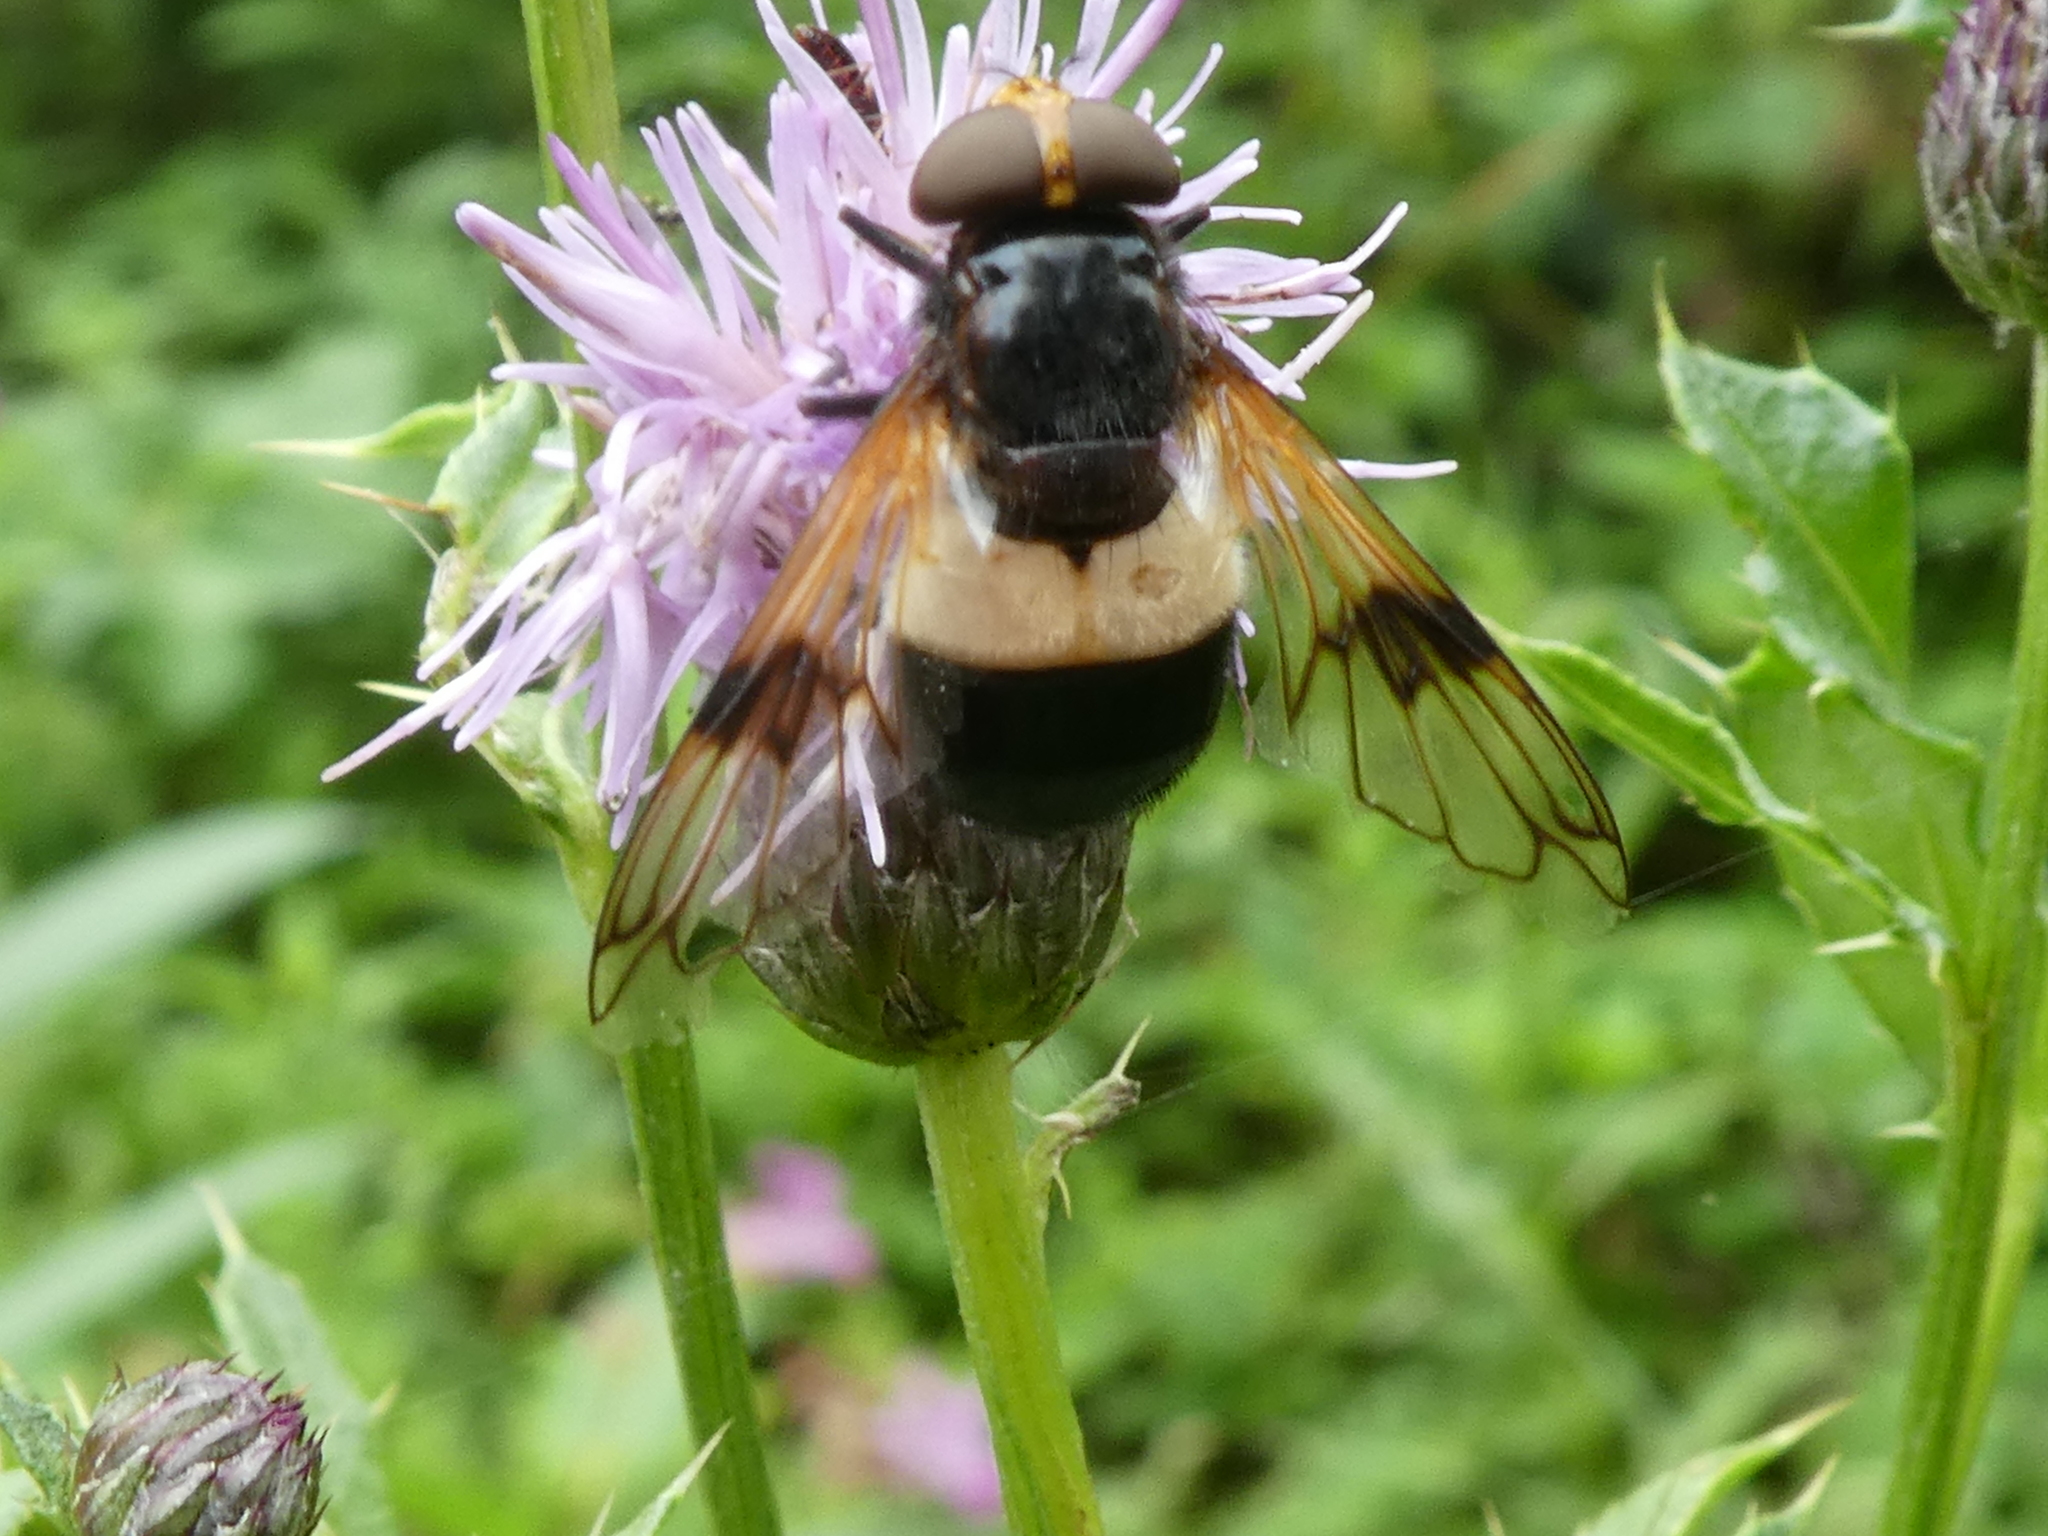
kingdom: Animalia
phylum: Arthropoda
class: Insecta
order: Diptera
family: Syrphidae
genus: Volucella
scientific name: Volucella pellucens
